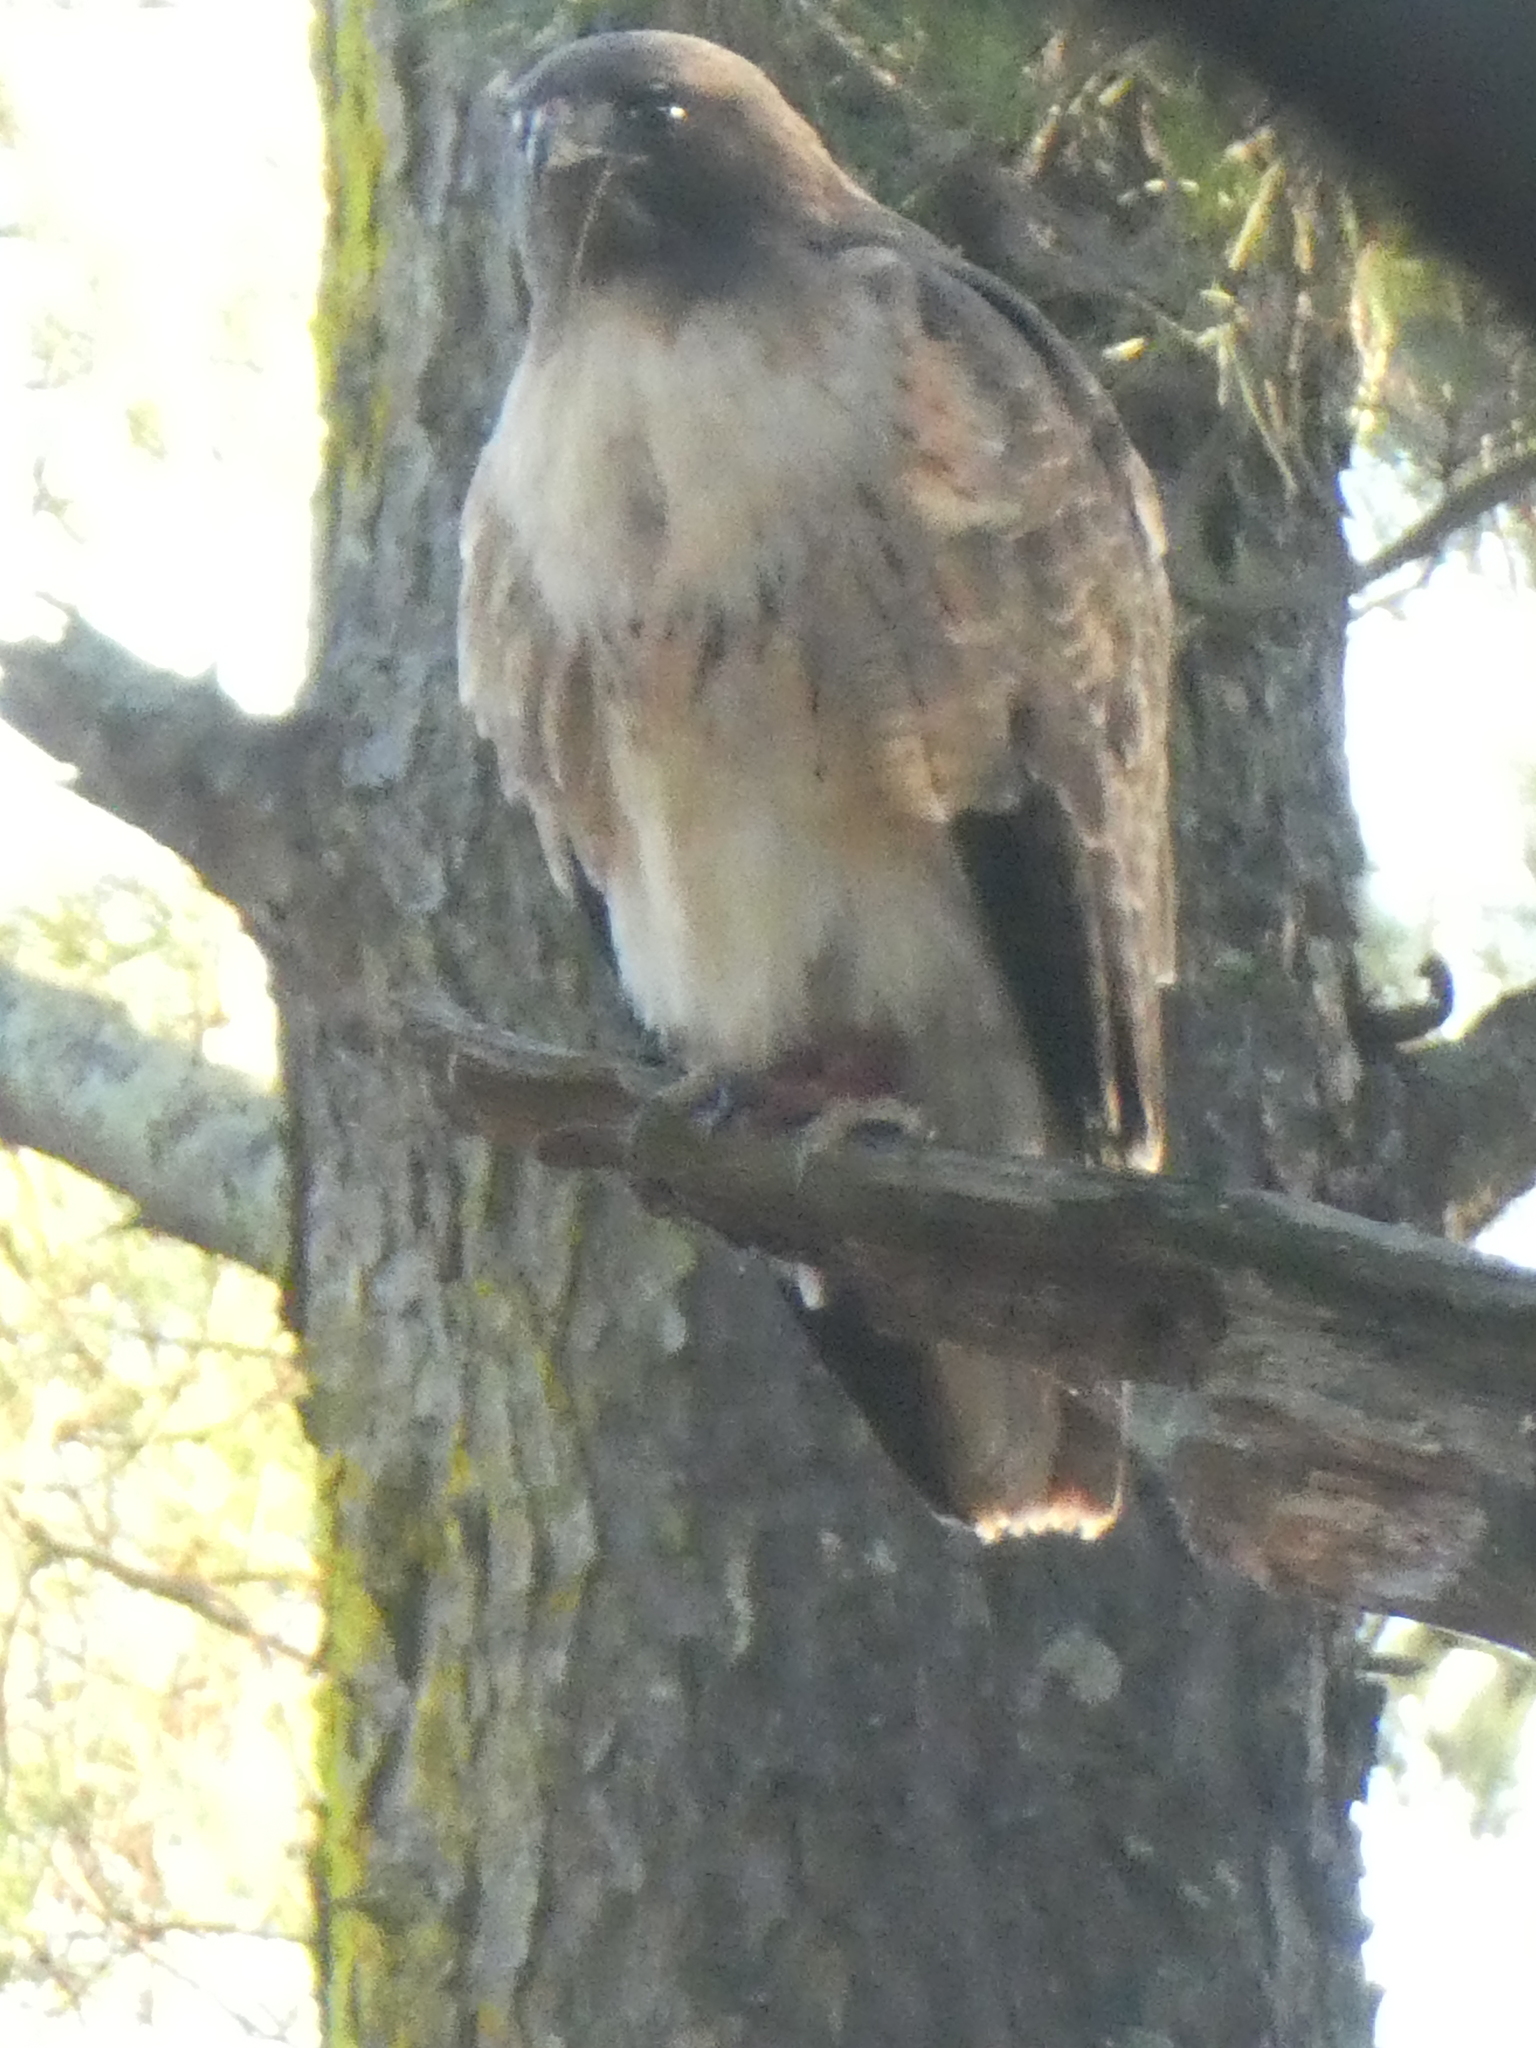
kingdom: Animalia
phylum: Chordata
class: Aves
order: Accipitriformes
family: Accipitridae
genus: Buteo
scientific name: Buteo jamaicensis
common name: Red-tailed hawk
